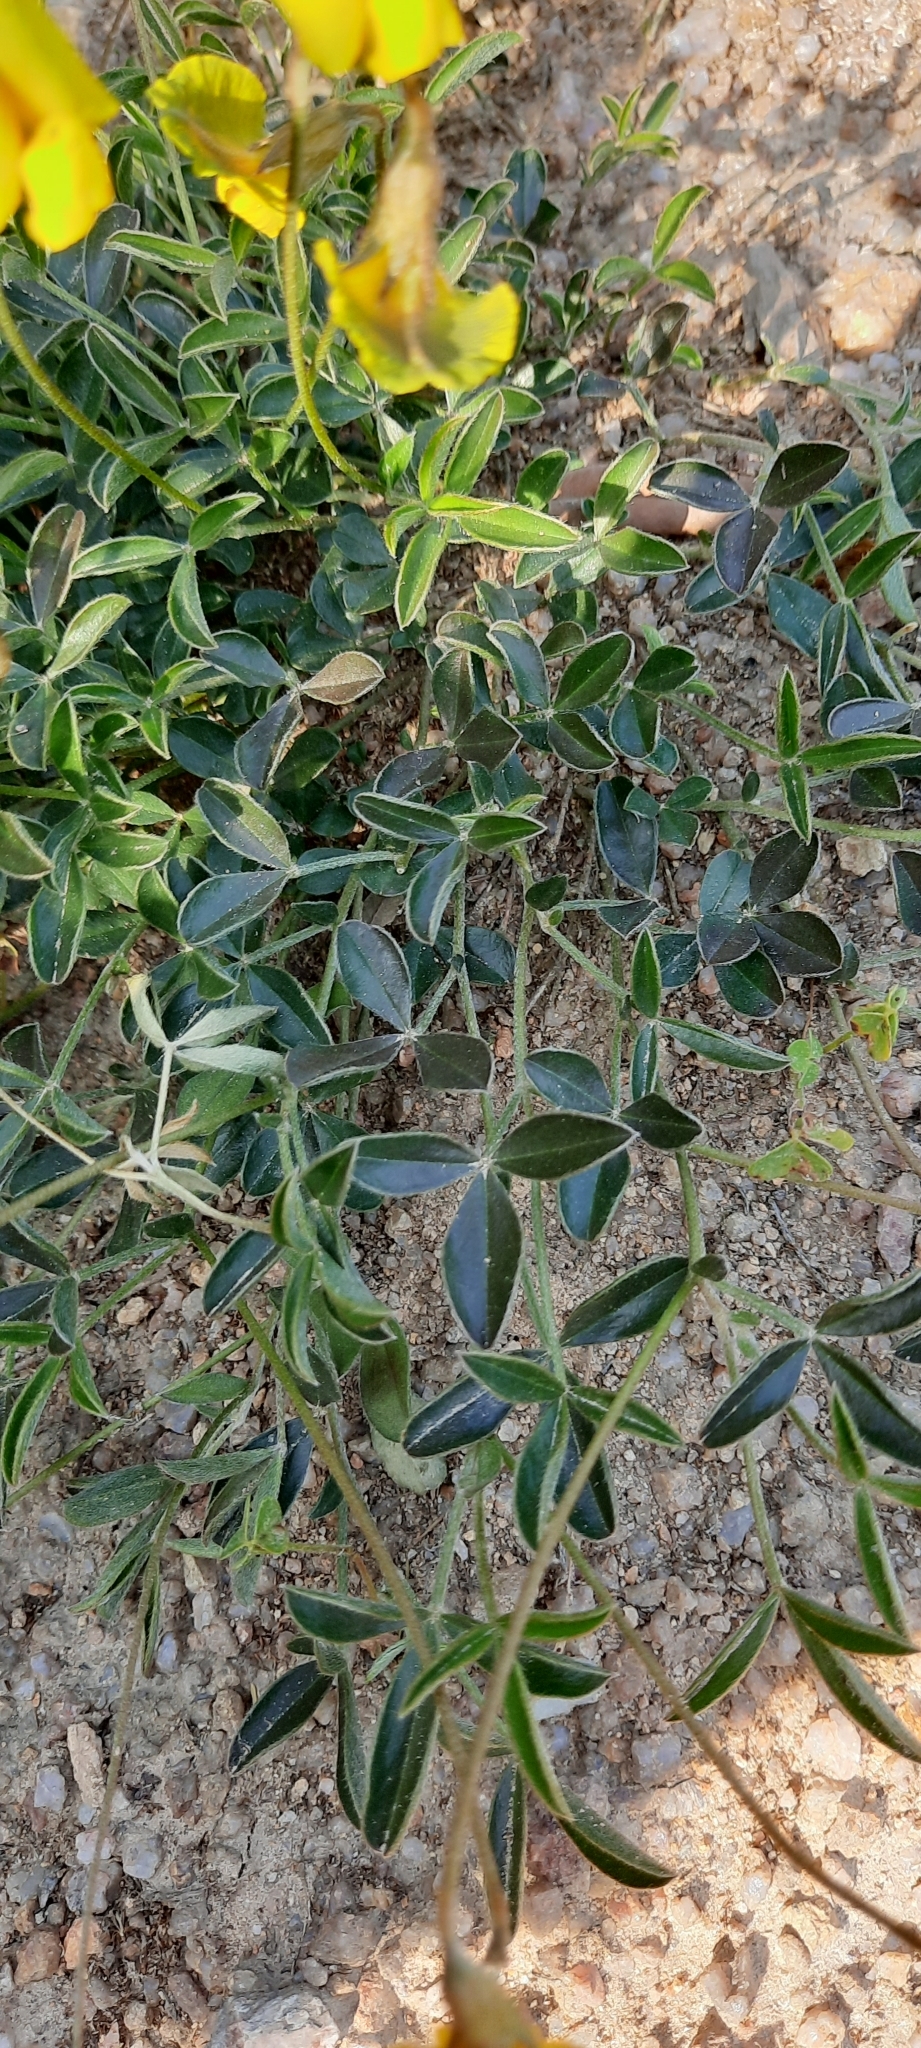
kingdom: Plantae
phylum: Tracheophyta
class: Magnoliopsida
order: Fabales
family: Fabaceae
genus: Lotononis
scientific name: Lotononis prostrata
